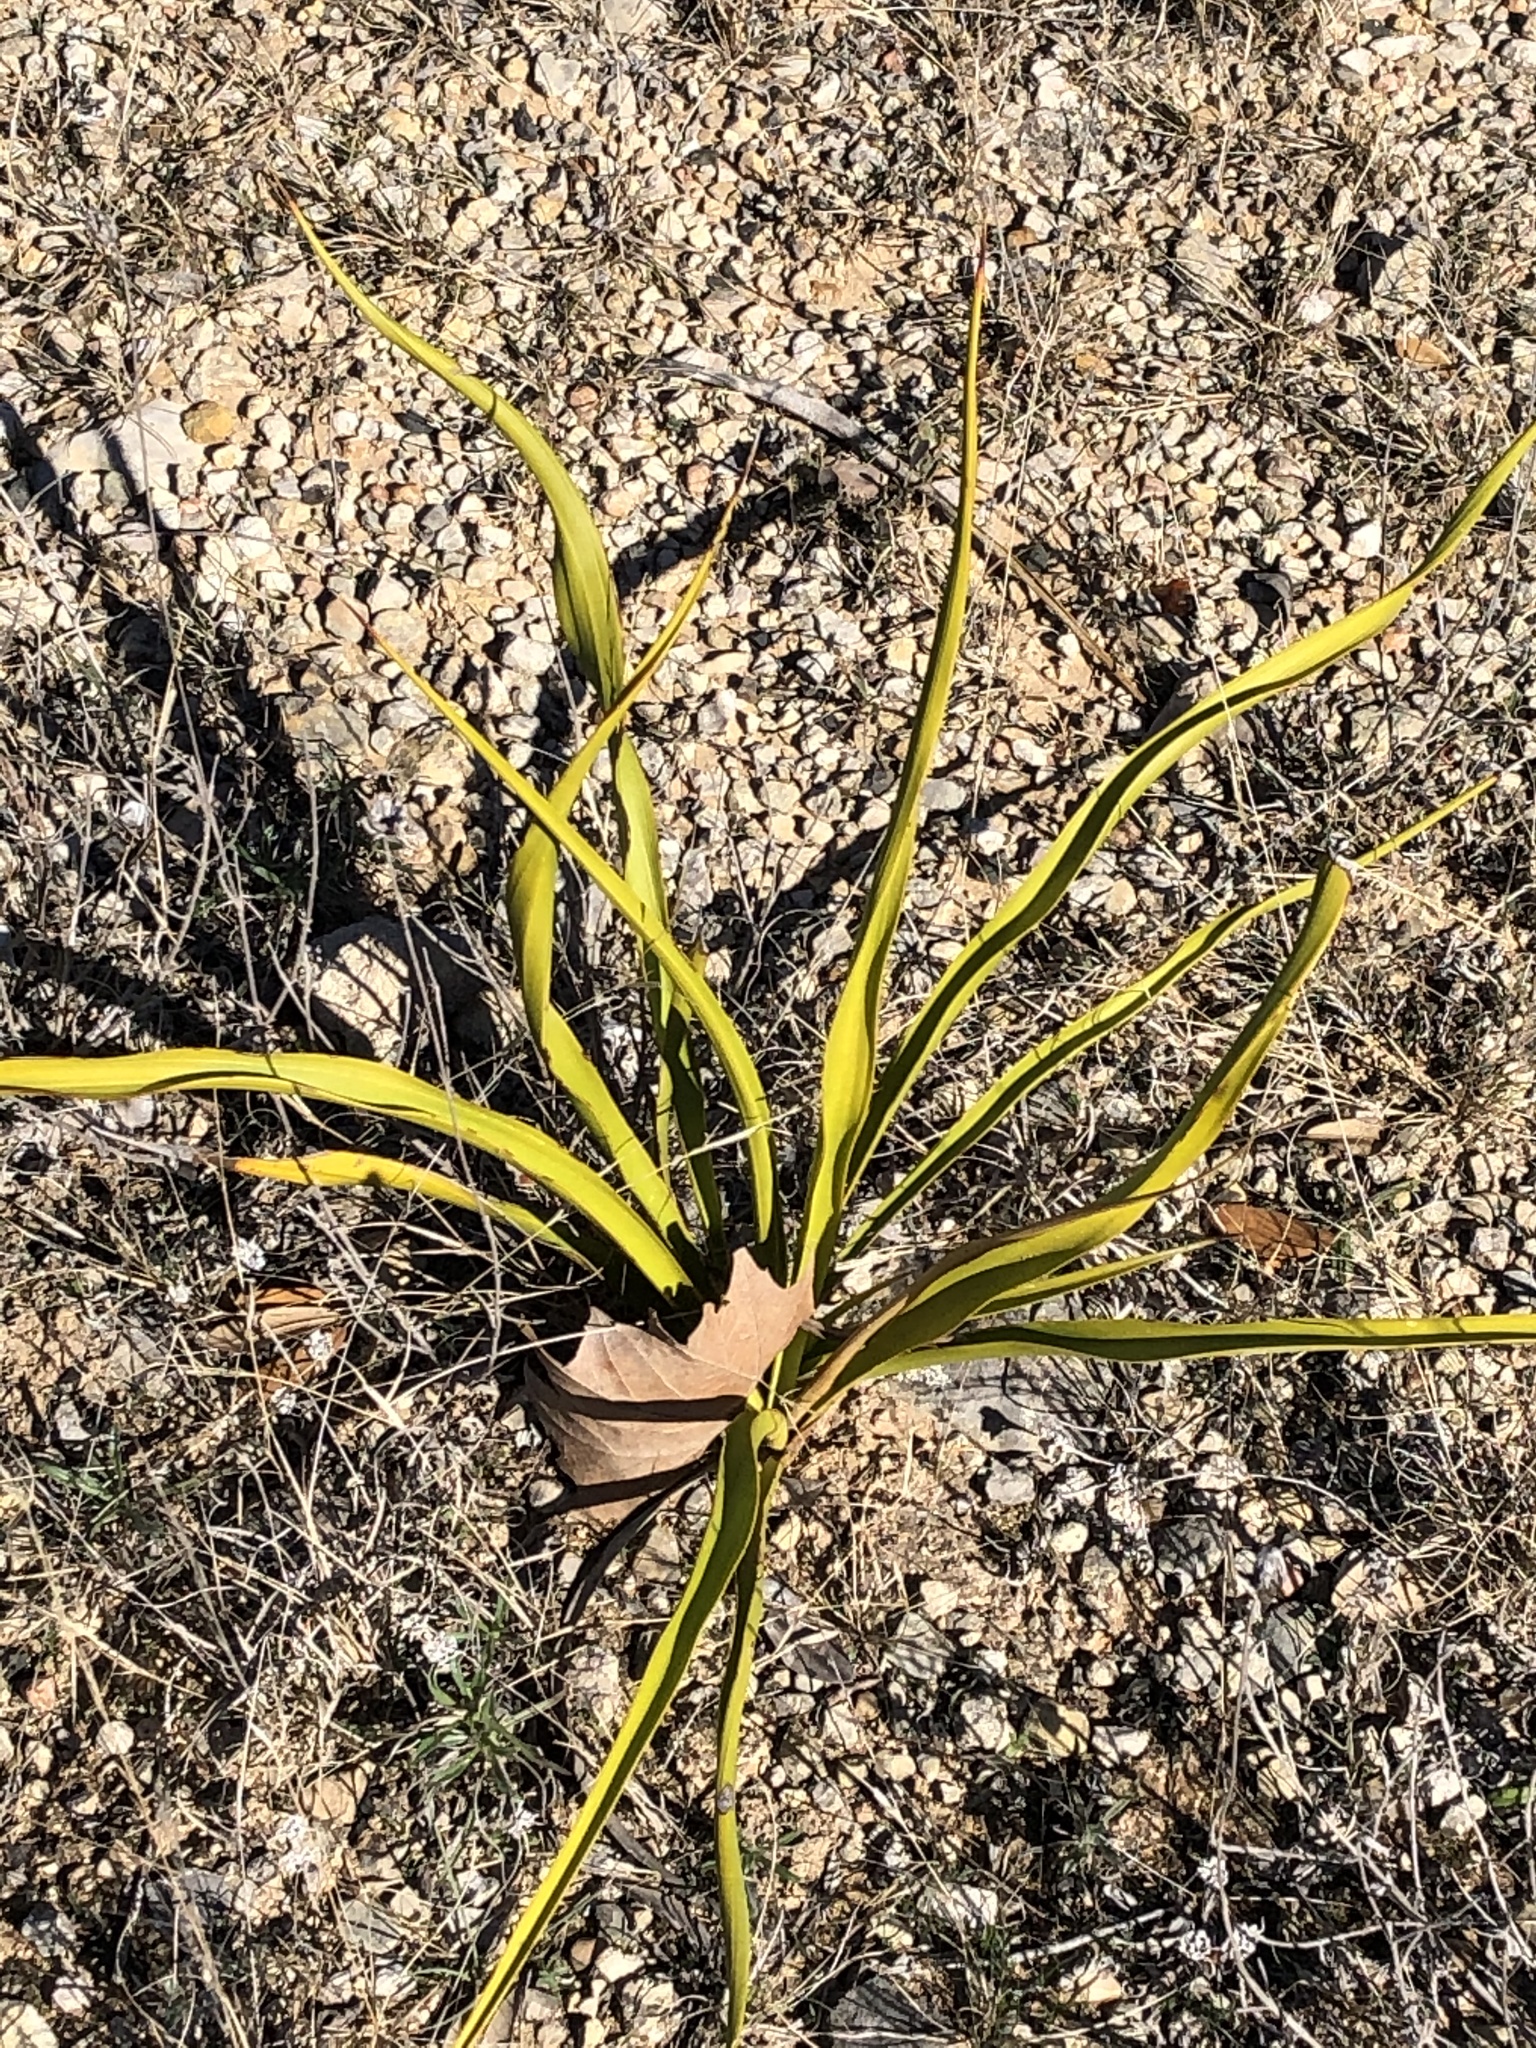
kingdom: Plantae
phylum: Tracheophyta
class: Liliopsida
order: Asparagales
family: Asparagaceae
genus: Yucca
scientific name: Yucca rupicola
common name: Twisted-leaf spanish-dagger
